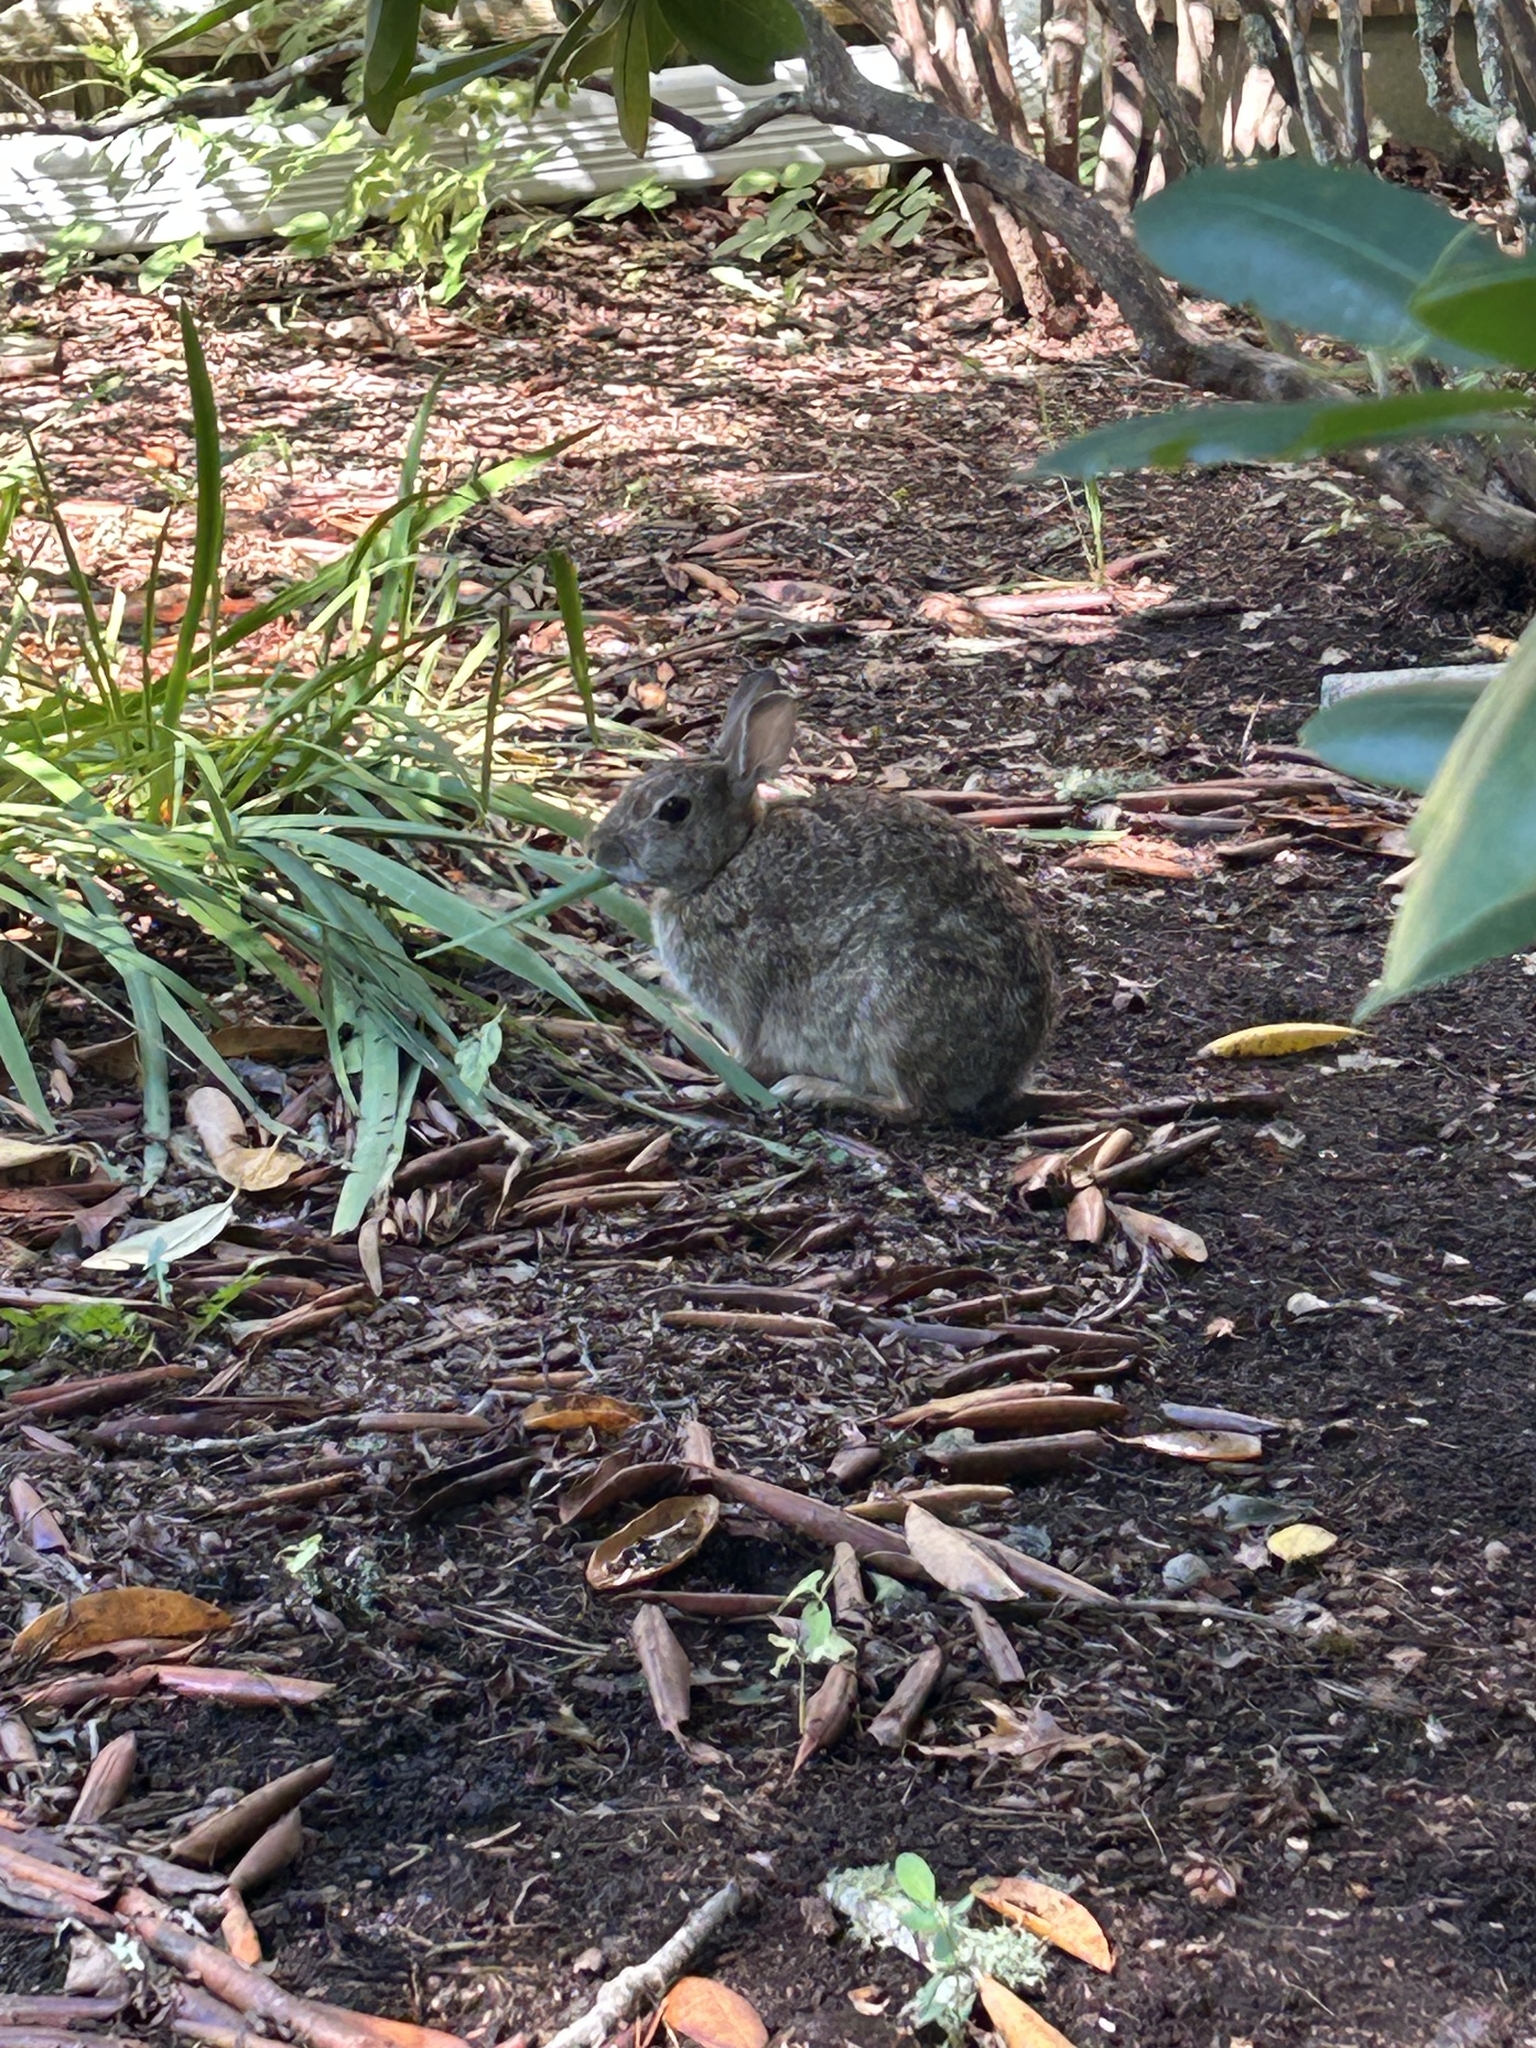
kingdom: Animalia
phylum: Chordata
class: Mammalia
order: Lagomorpha
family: Leporidae
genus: Sylvilagus
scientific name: Sylvilagus floridanus
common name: Eastern cottontail
